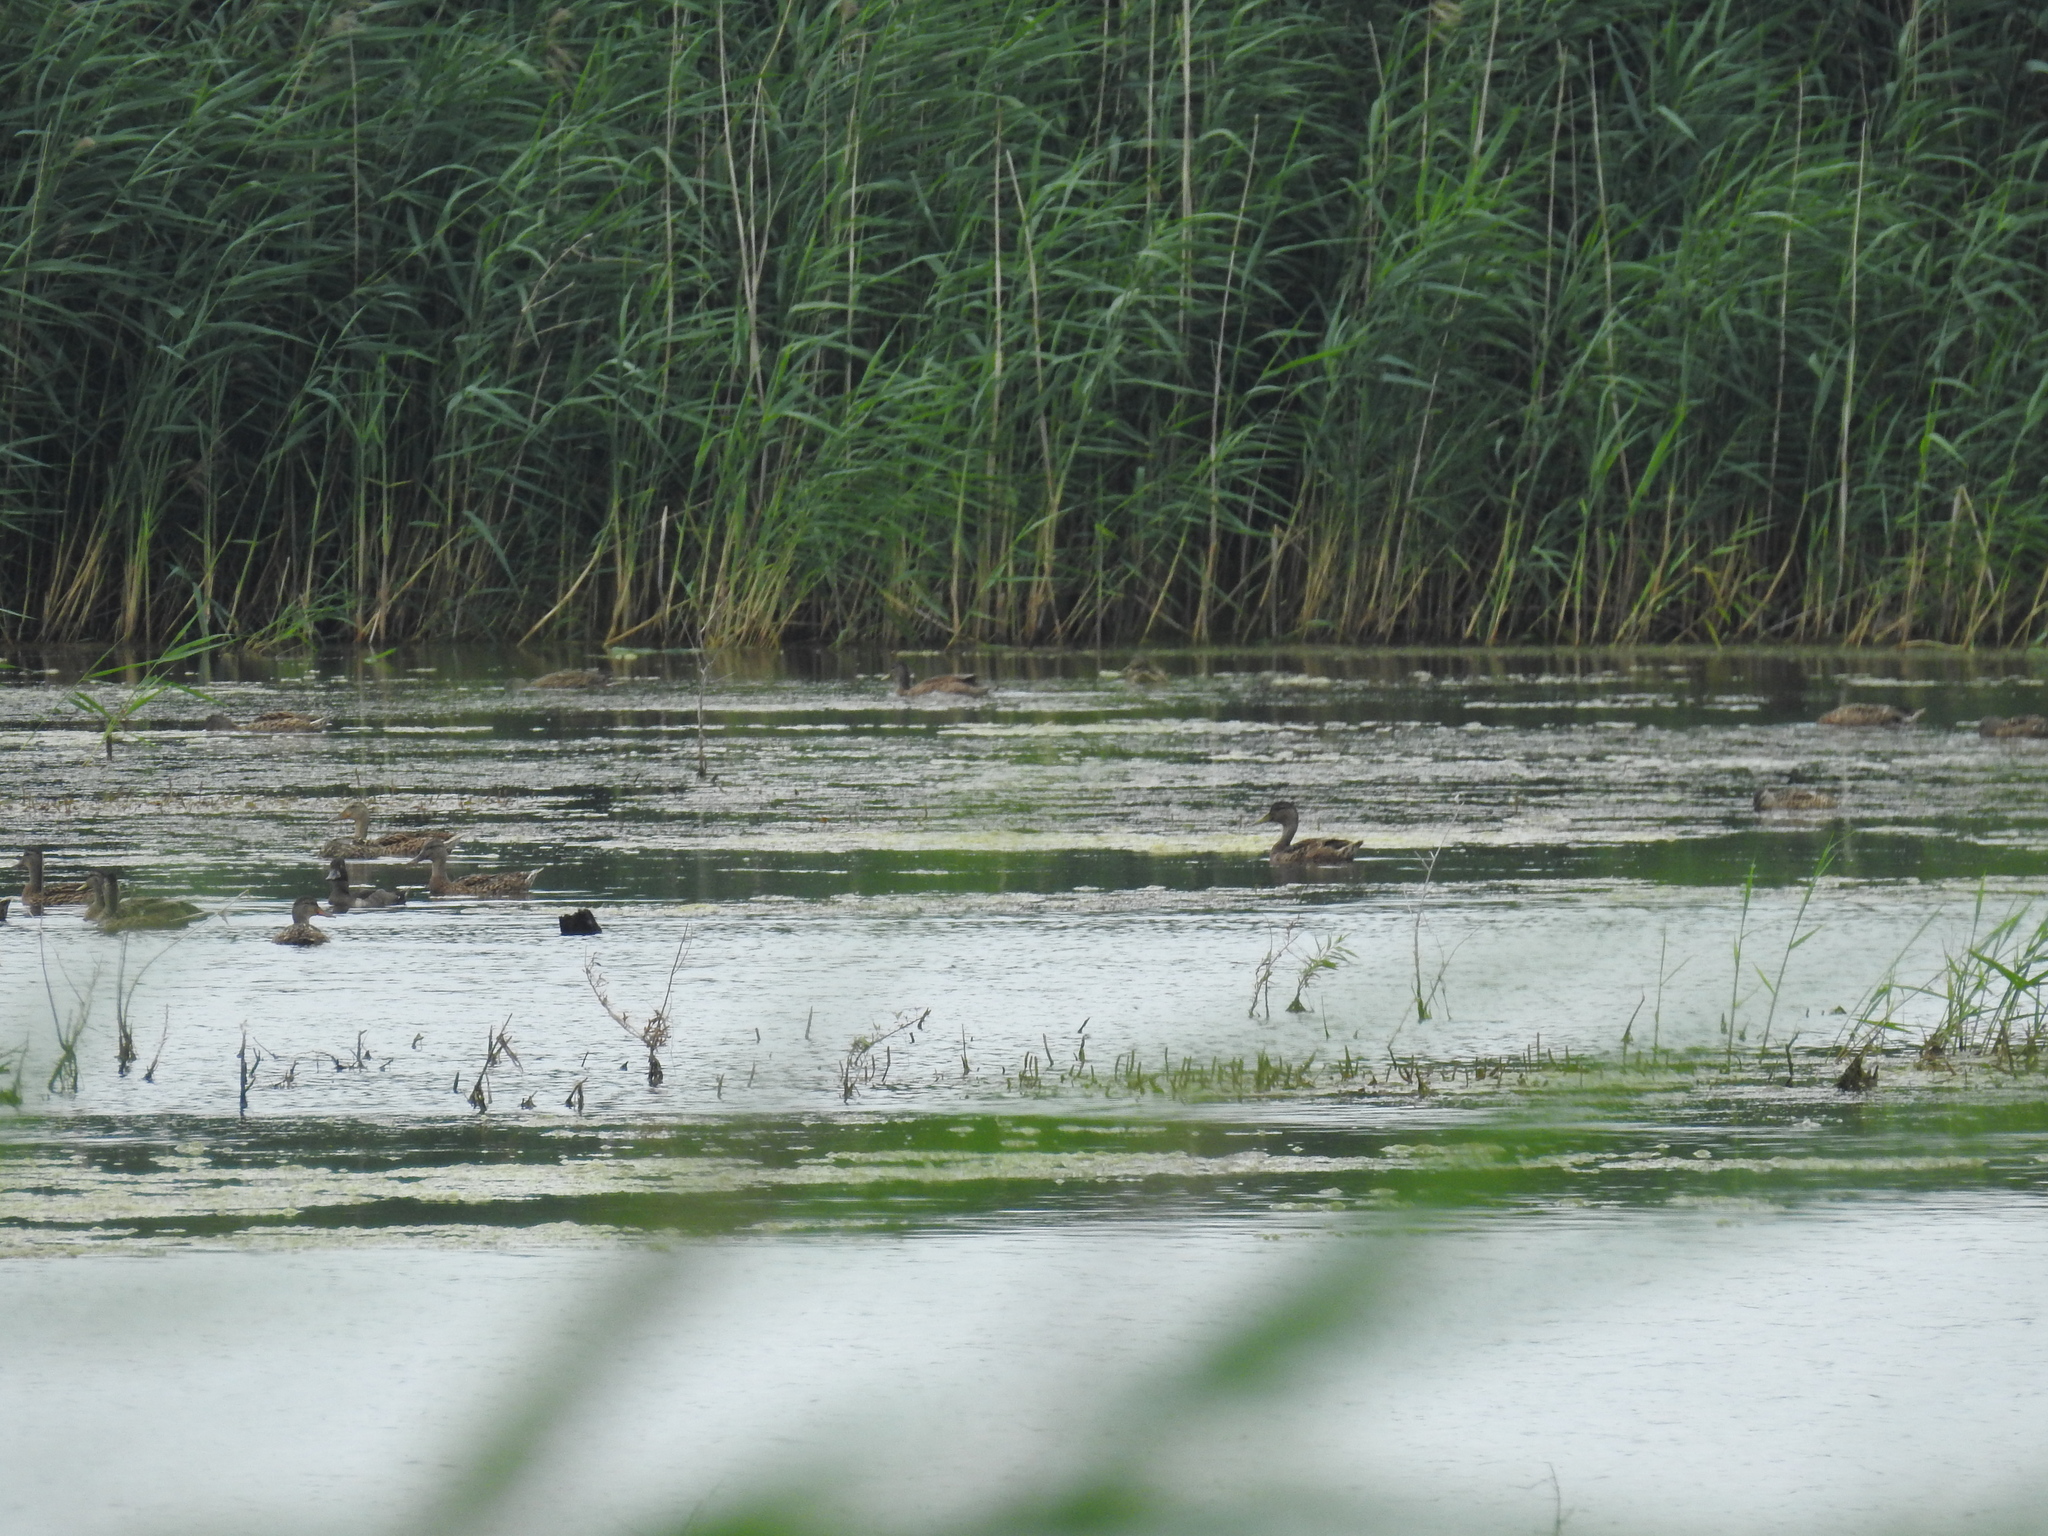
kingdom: Animalia
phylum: Chordata
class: Aves
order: Anseriformes
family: Anatidae
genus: Anas
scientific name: Anas platyrhynchos
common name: Mallard
